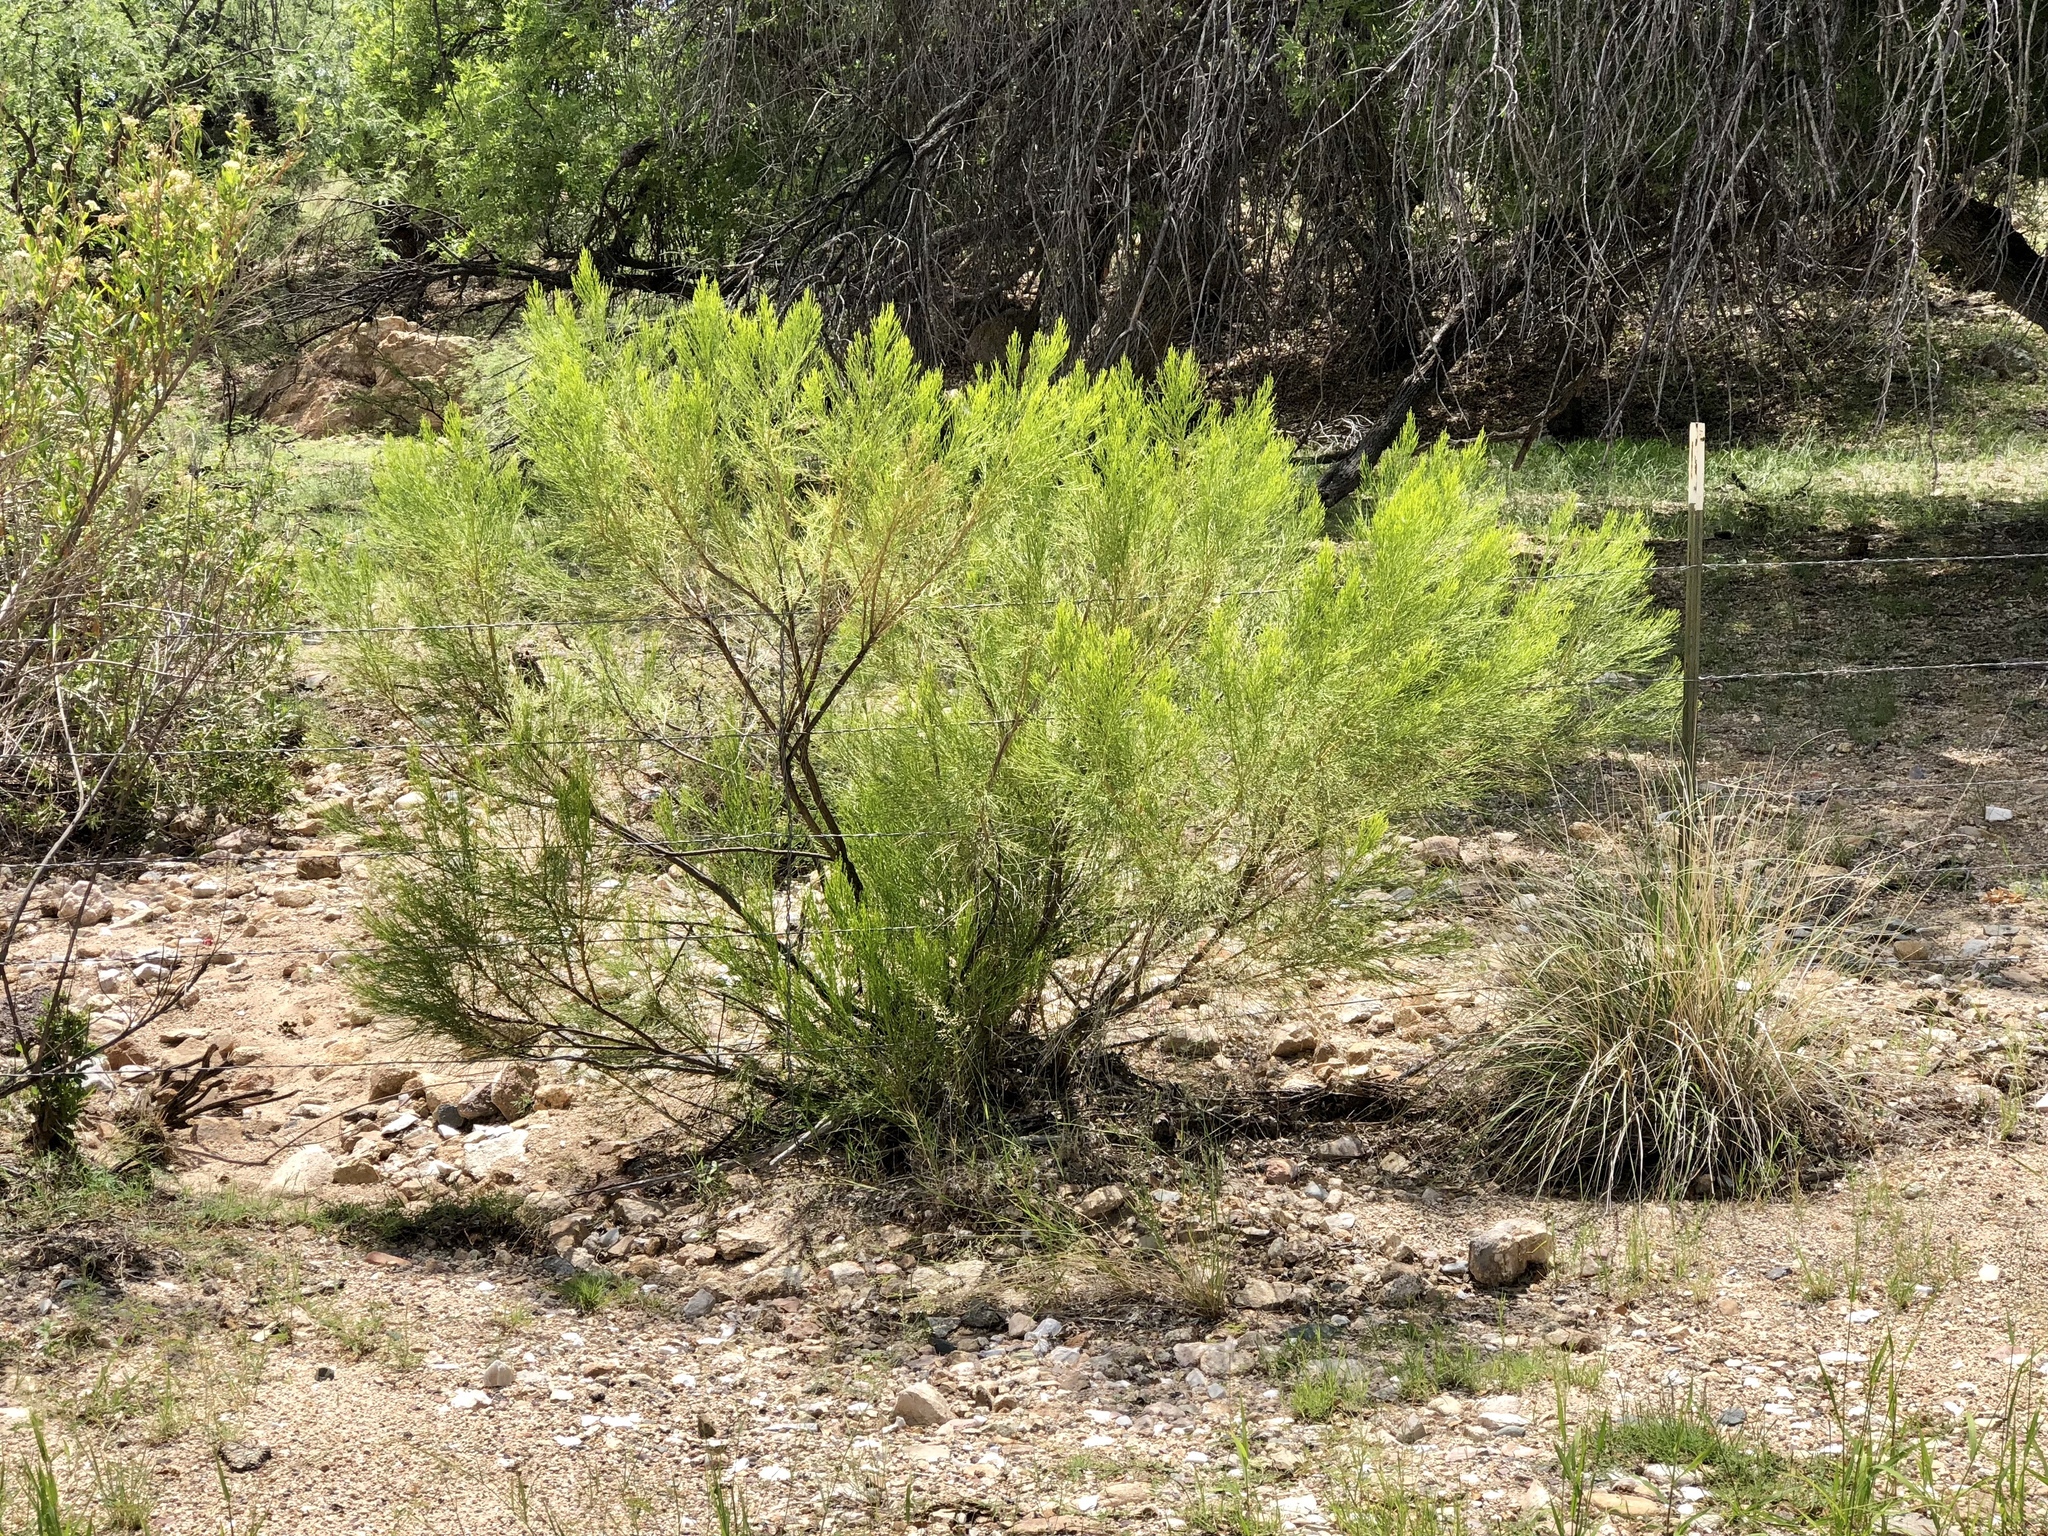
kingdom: Plantae
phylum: Tracheophyta
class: Magnoliopsida
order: Asterales
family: Asteraceae
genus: Baccharis
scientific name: Baccharis sarothroides
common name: Desert-broom
